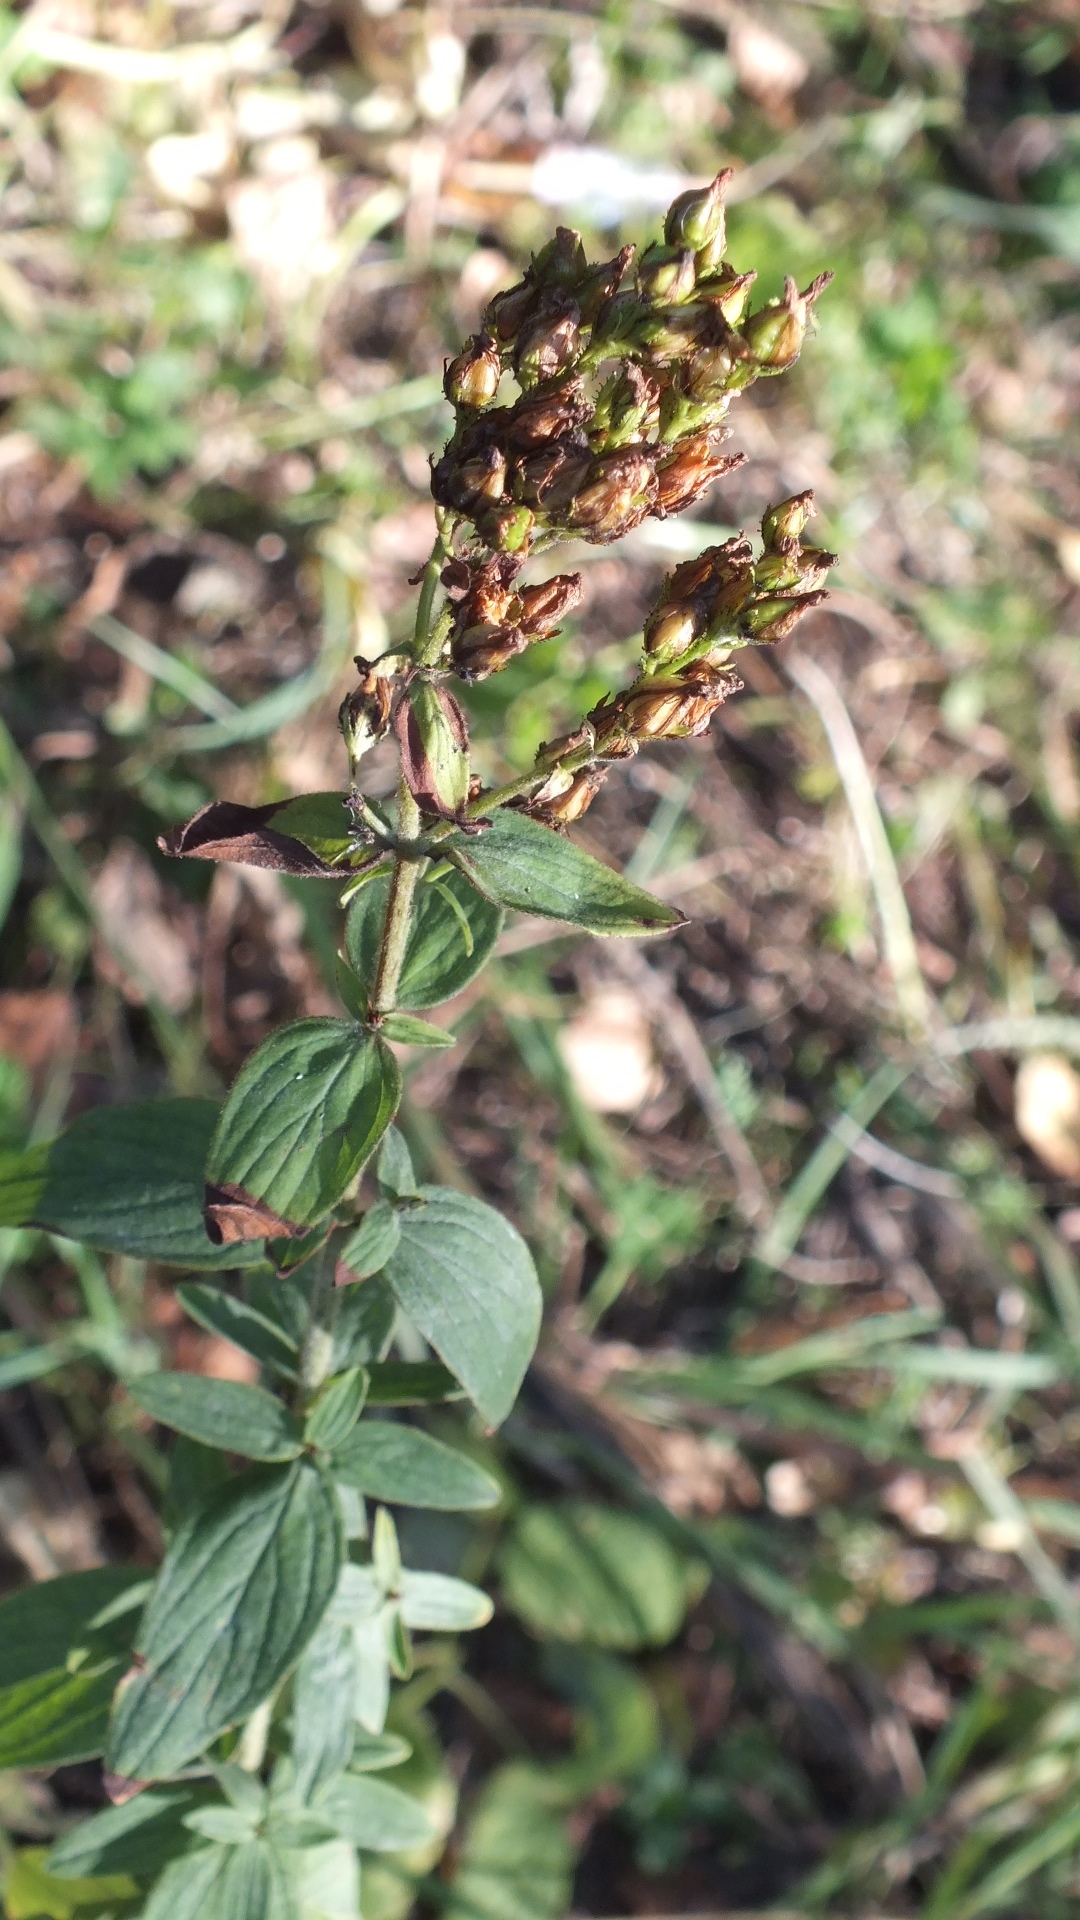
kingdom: Plantae
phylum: Tracheophyta
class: Magnoliopsida
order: Malpighiales
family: Hypericaceae
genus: Hypericum
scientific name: Hypericum hirsutum
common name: Hairy st. john's-wort
